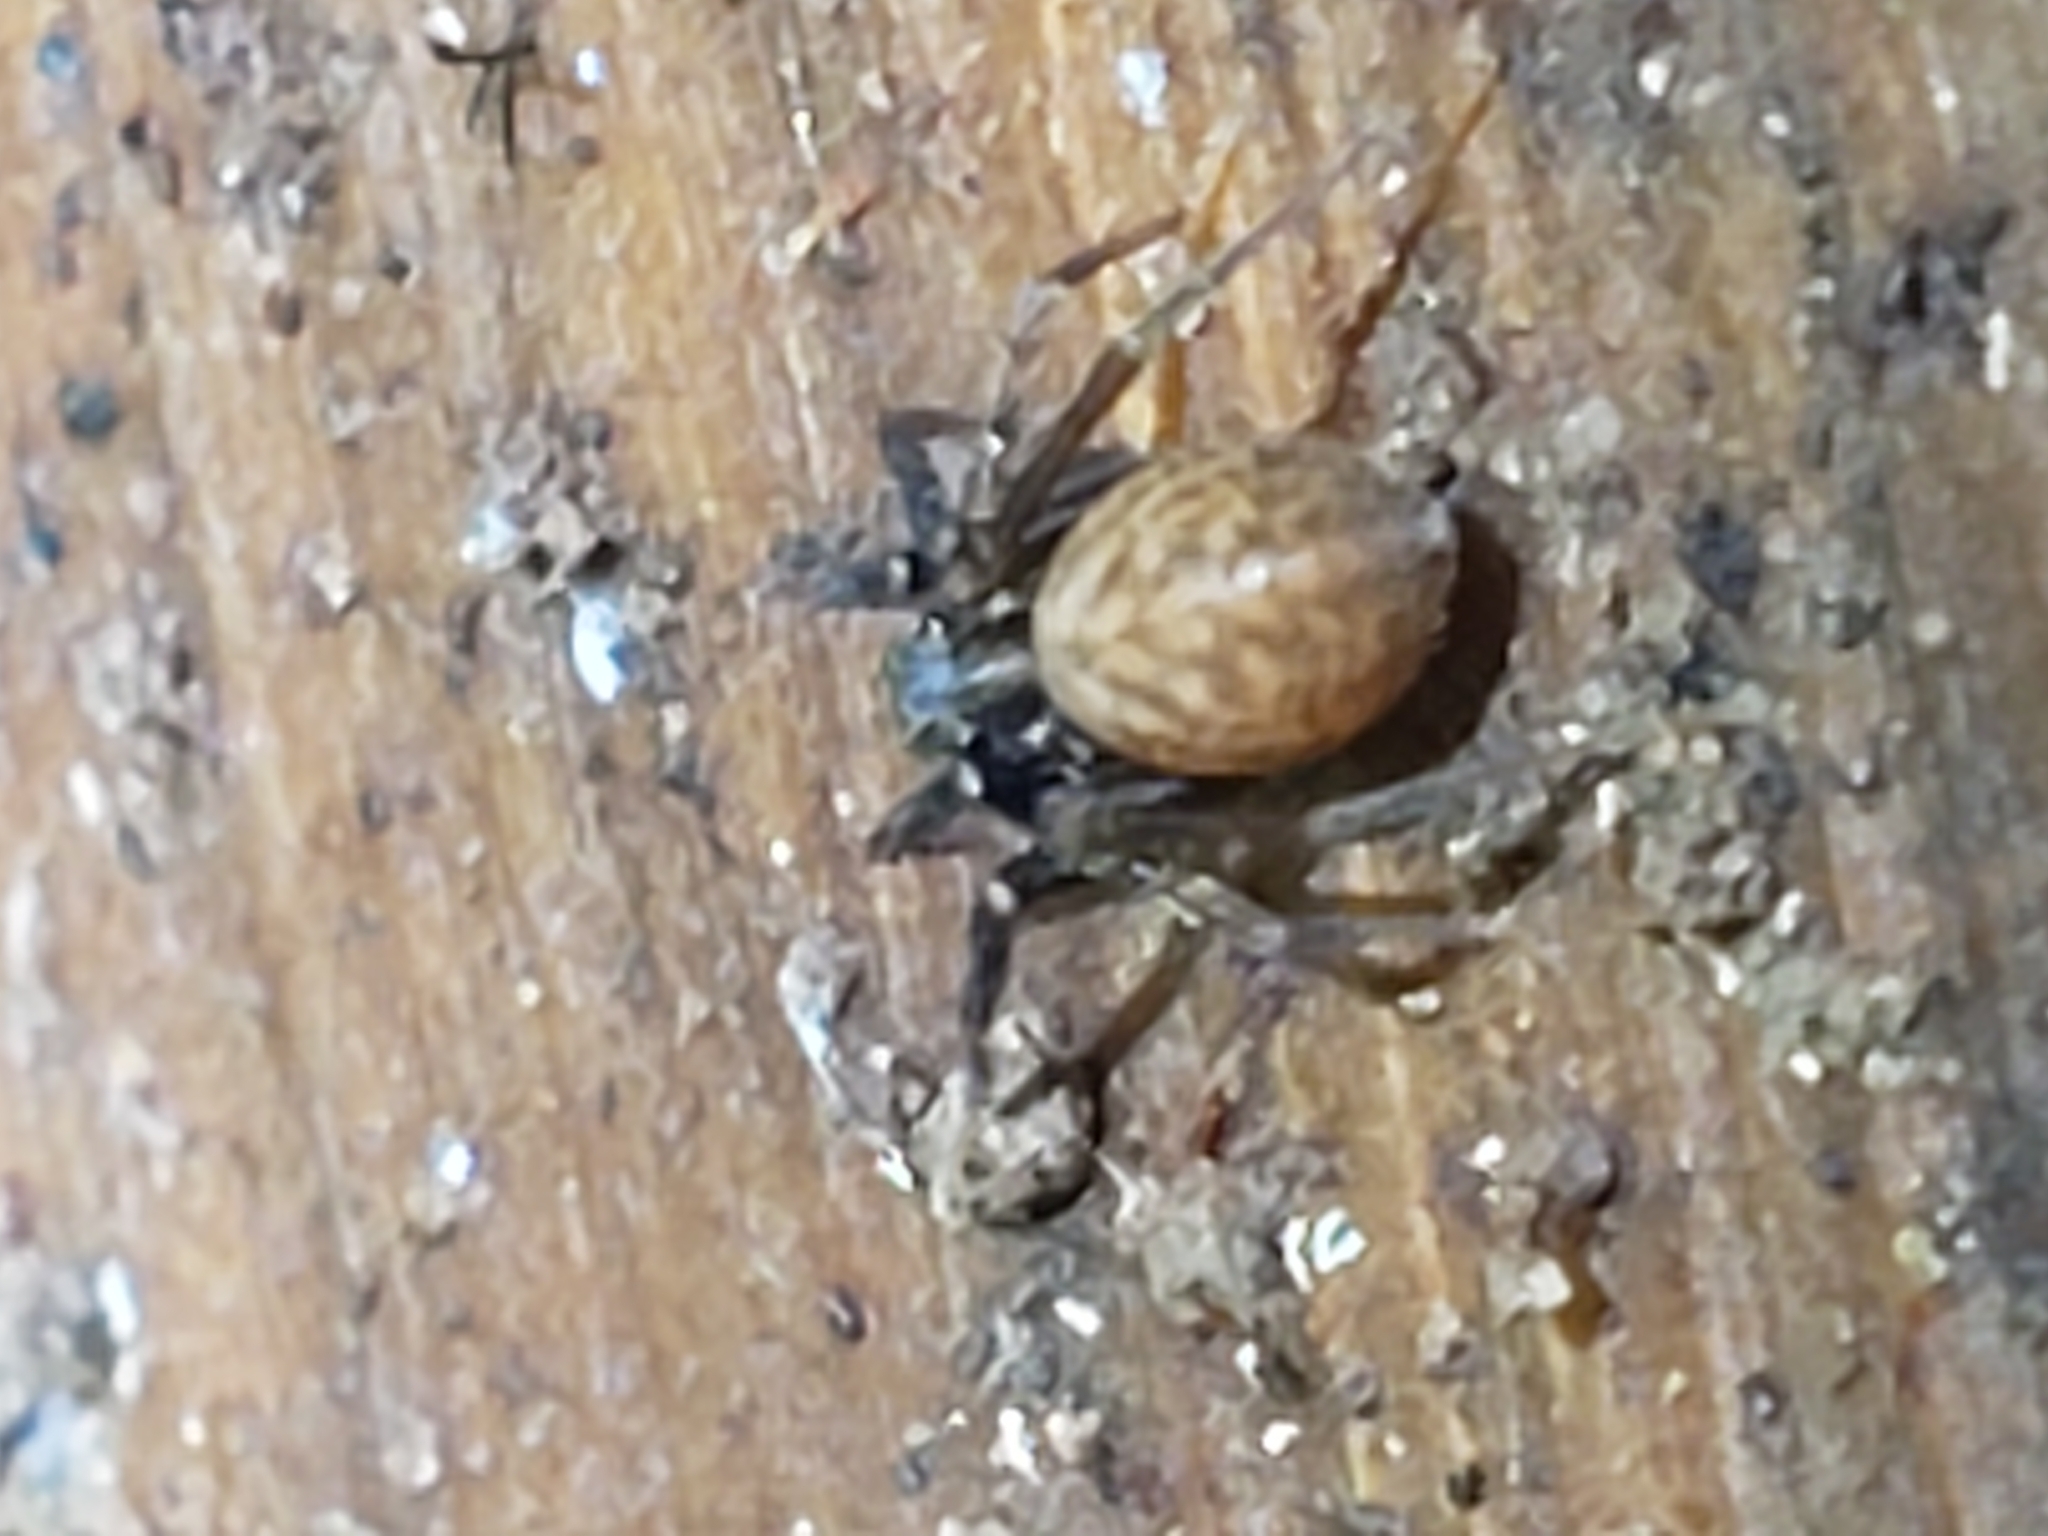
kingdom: Animalia
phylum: Arthropoda
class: Arachnida
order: Araneae
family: Salticidae
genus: Chinattus
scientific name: Chinattus parvulus
